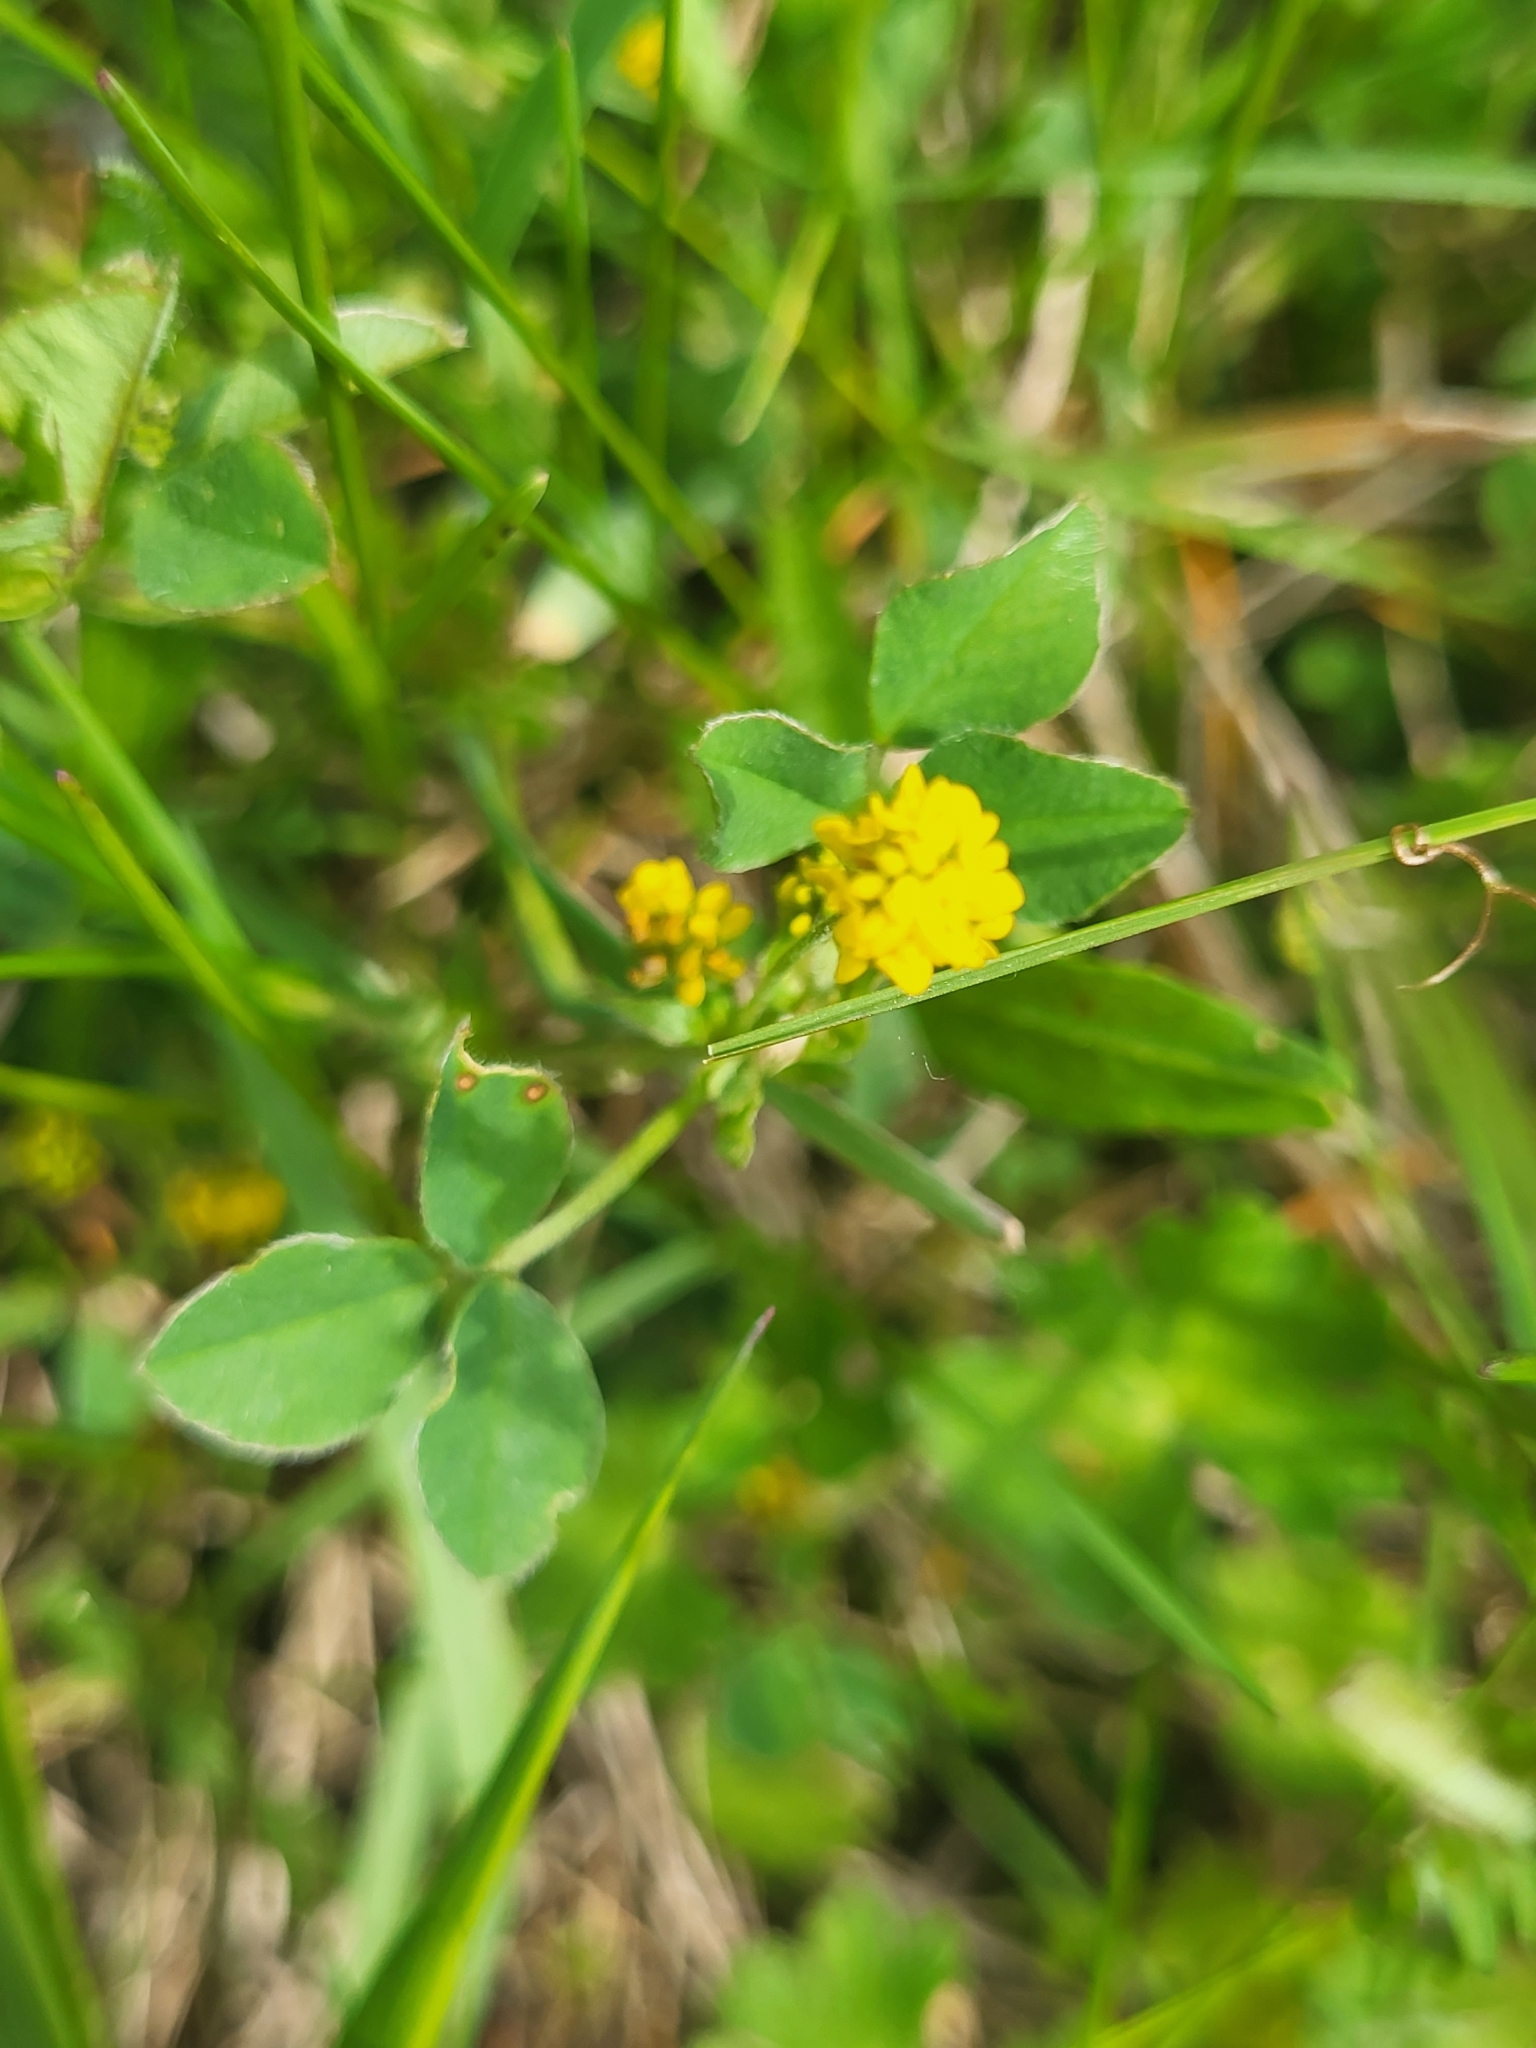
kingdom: Plantae
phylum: Tracheophyta
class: Magnoliopsida
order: Fabales
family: Fabaceae
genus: Medicago
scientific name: Medicago lupulina
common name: Black medick
